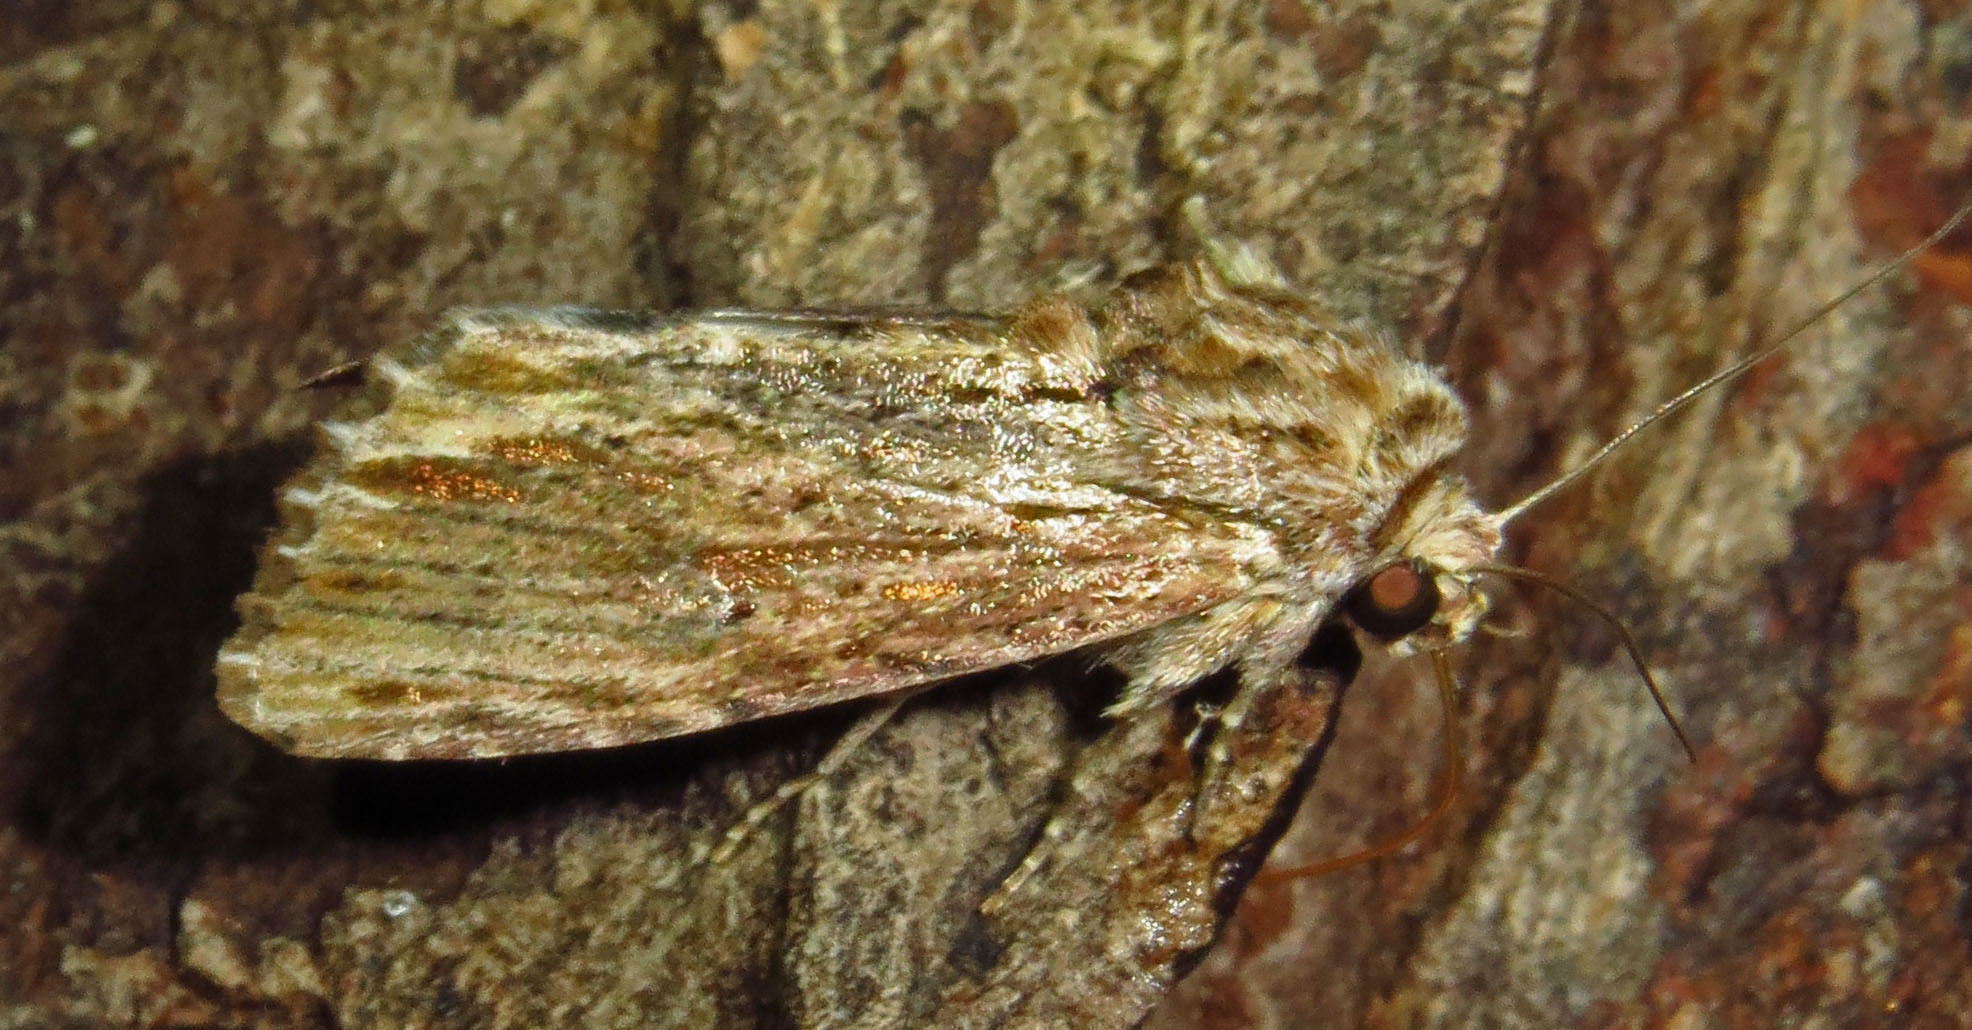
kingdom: Animalia
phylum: Arthropoda
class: Insecta
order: Lepidoptera
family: Noctuidae
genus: Spodoptera
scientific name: Spodoptera eridania
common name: Southern army worm
